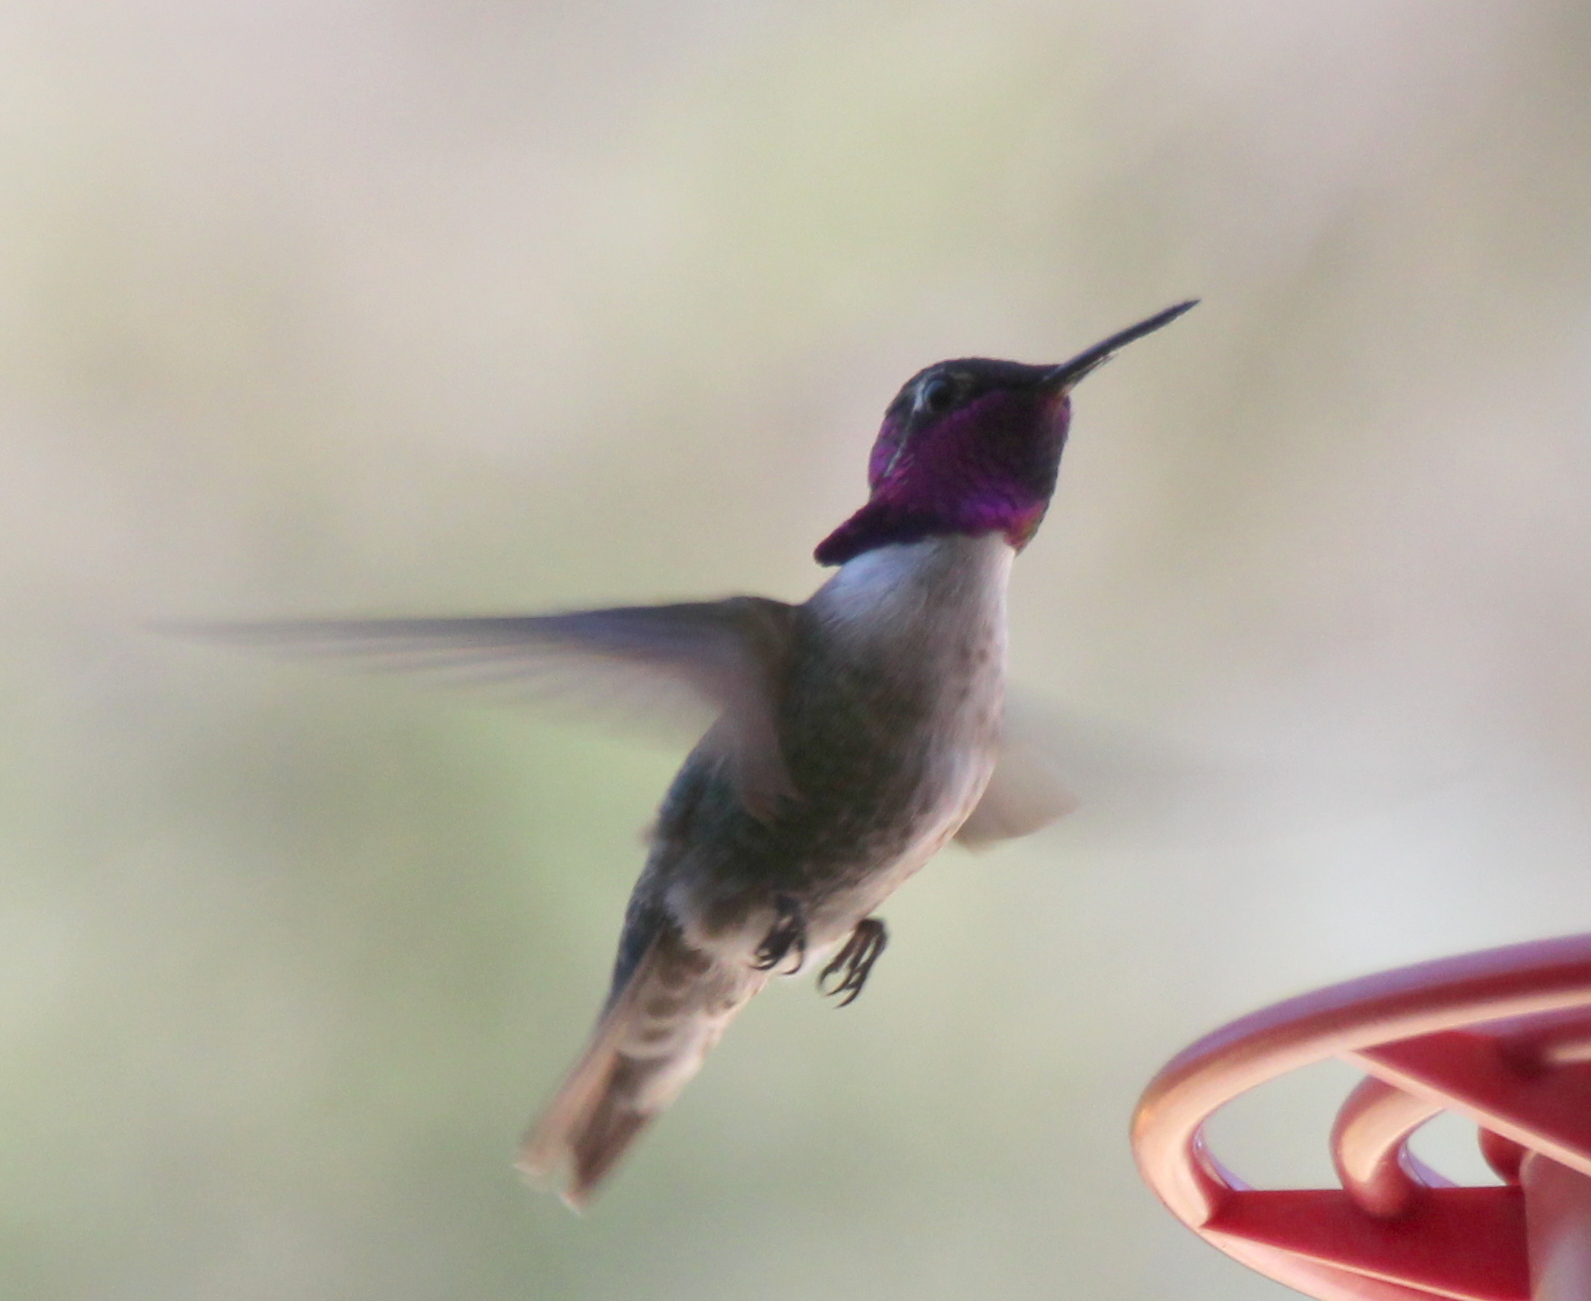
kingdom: Animalia
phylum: Chordata
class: Aves
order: Apodiformes
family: Trochilidae
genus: Calypte
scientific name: Calypte costae
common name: Costa's hummingbird
